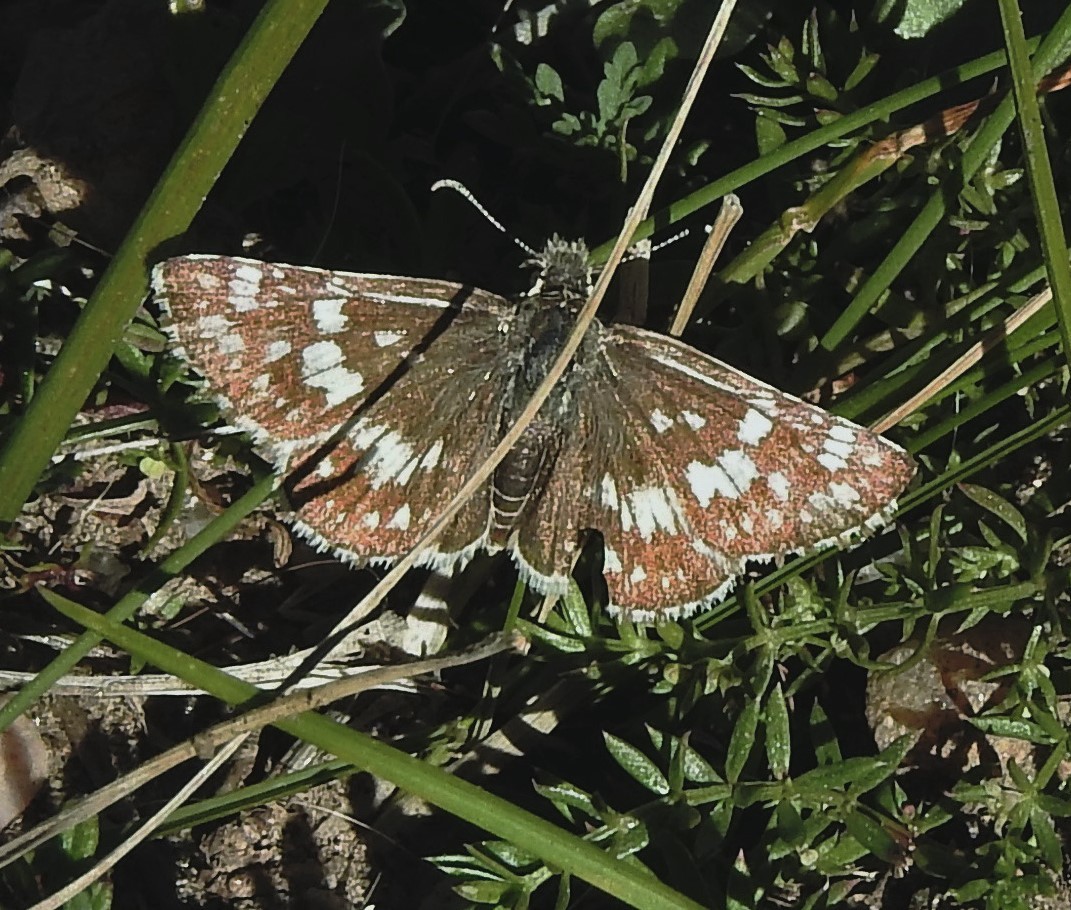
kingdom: Animalia
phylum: Arthropoda
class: Insecta
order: Lepidoptera
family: Hesperiidae
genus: Burnsius
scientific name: Burnsius orcynoides
